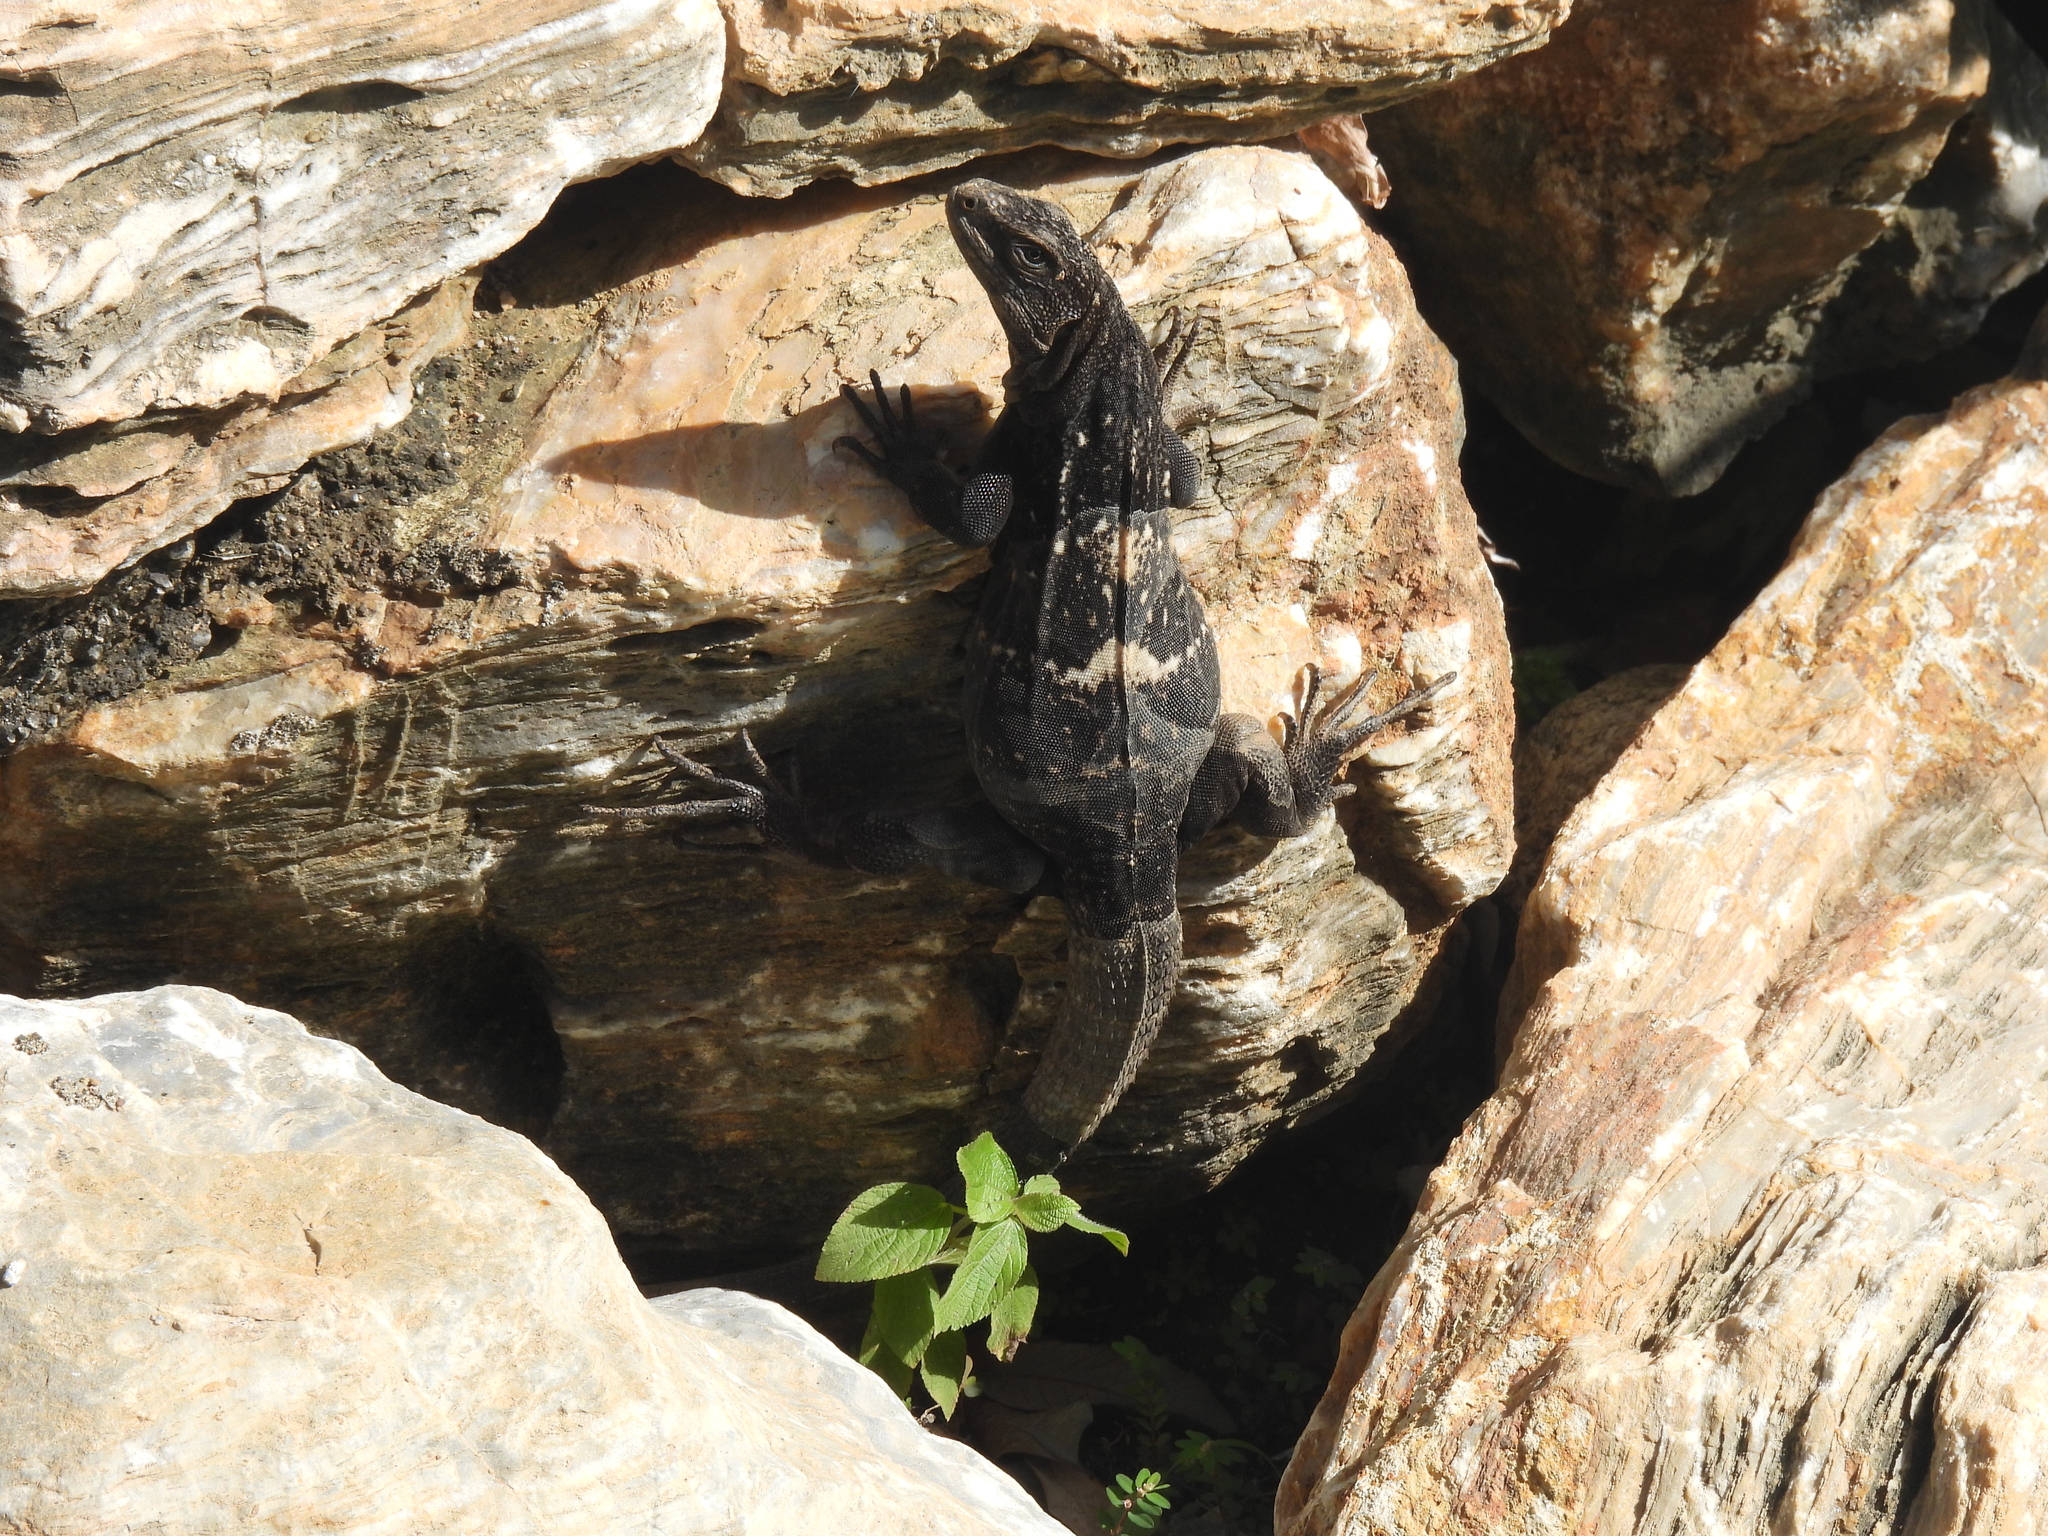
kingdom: Animalia
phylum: Chordata
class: Squamata
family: Iguanidae
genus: Ctenosaura
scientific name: Ctenosaura oedirhina
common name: Roatan spiny-tailed iguana
